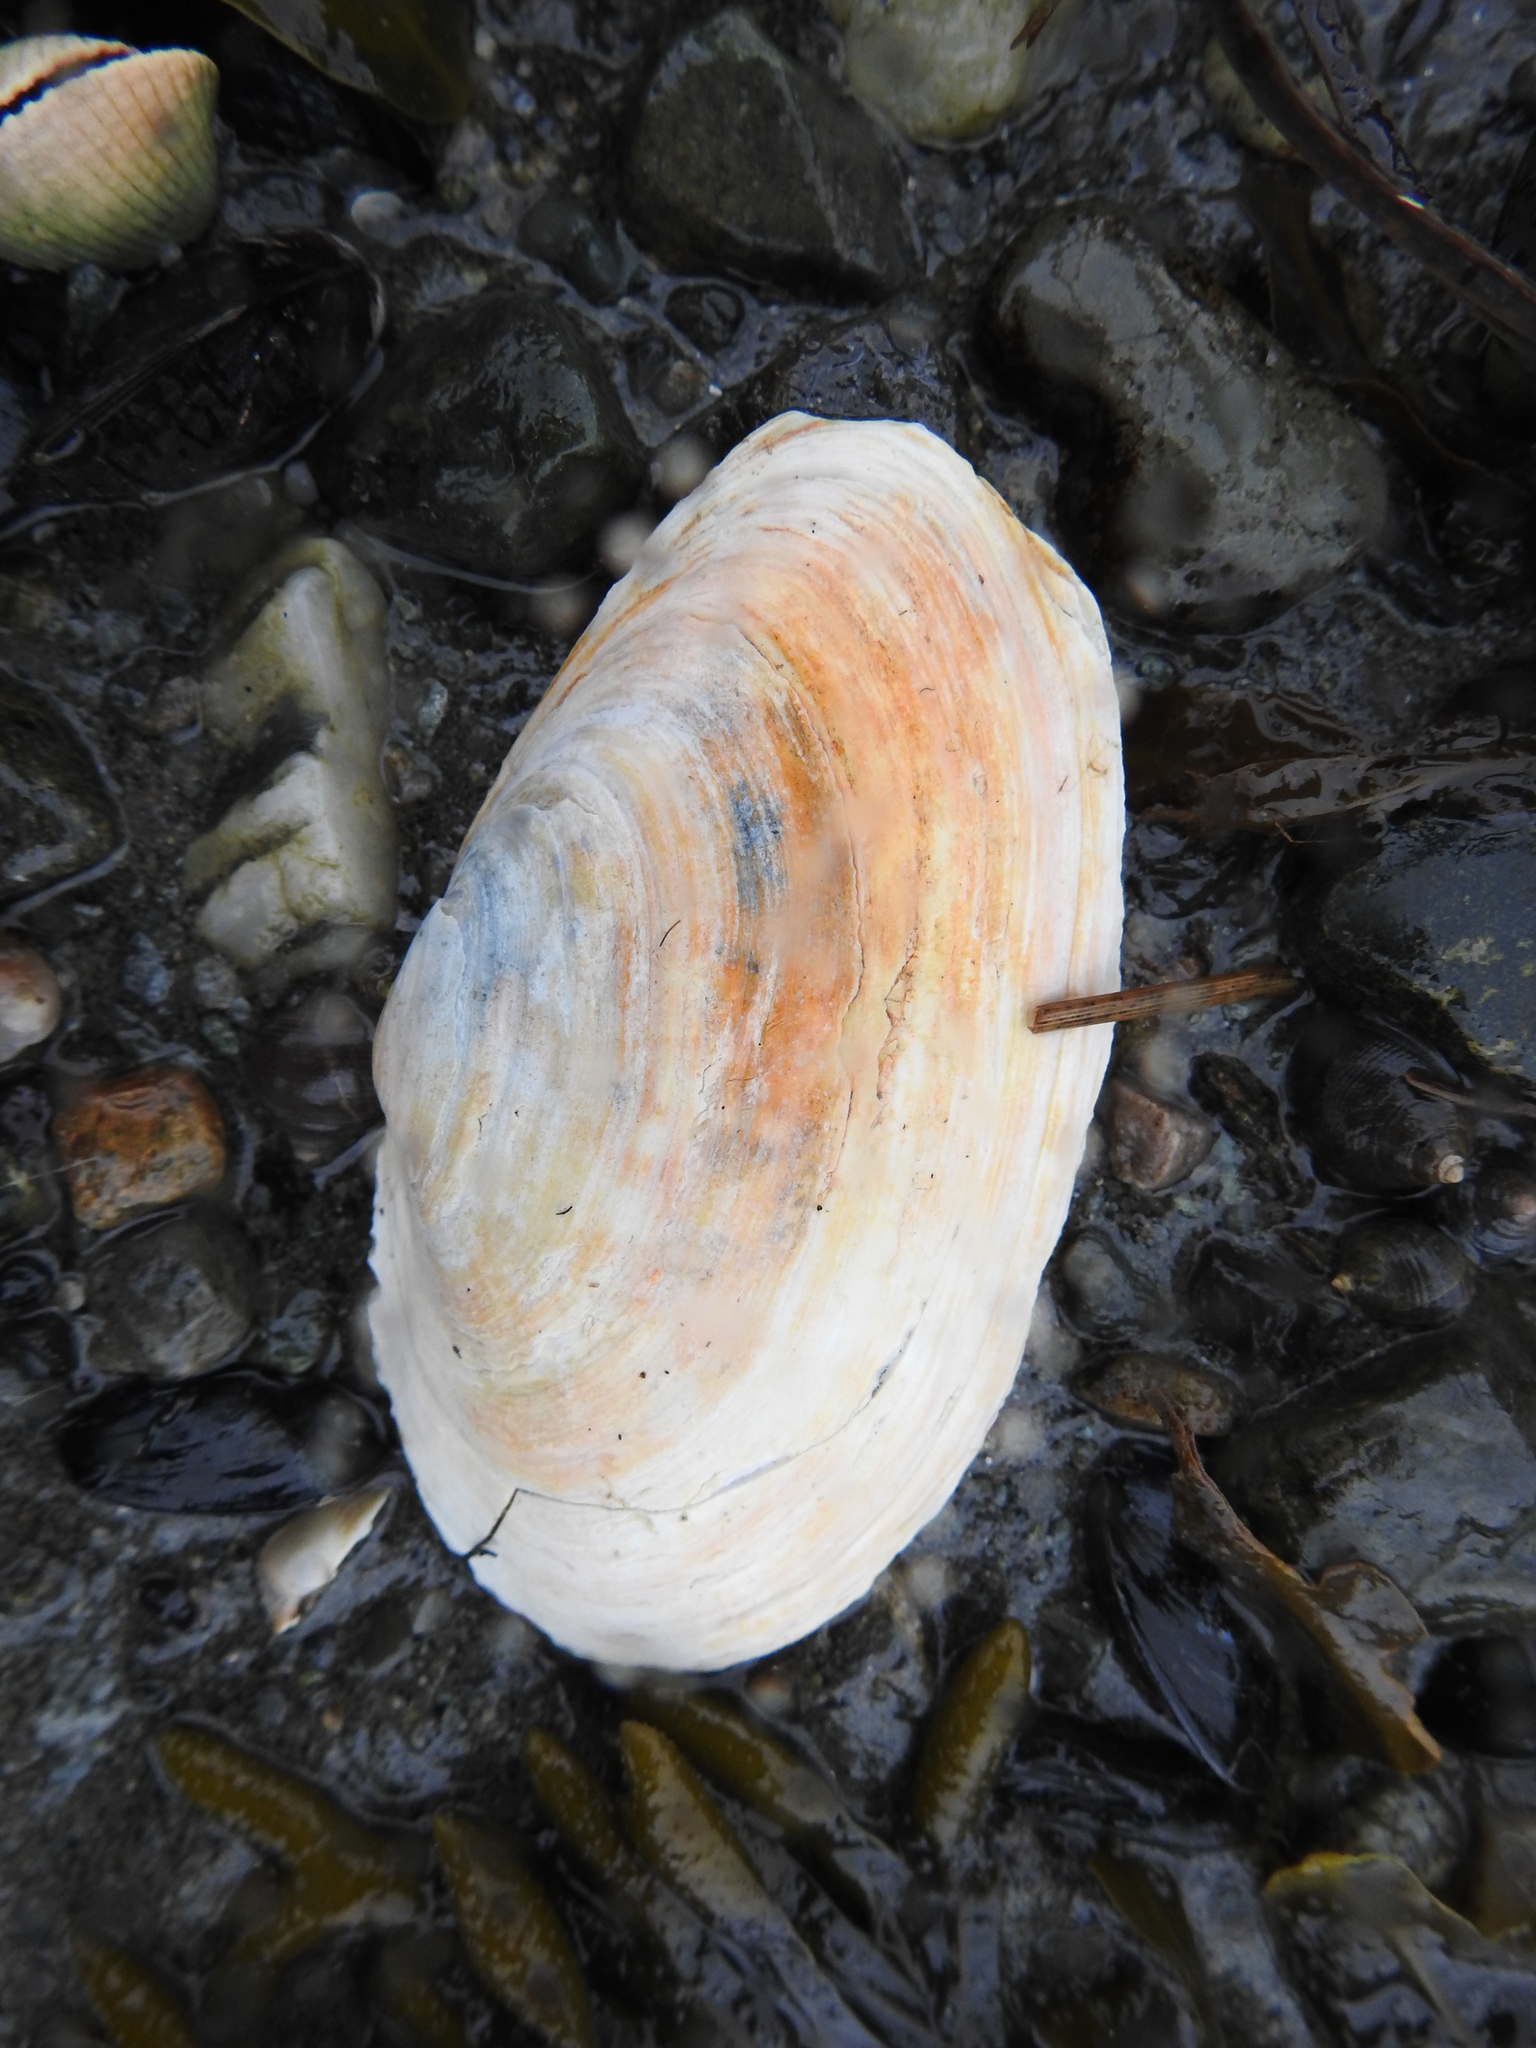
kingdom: Animalia
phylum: Mollusca
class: Bivalvia
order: Myida
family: Myidae
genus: Mya
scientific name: Mya arenaria
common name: Soft-shelled clam
